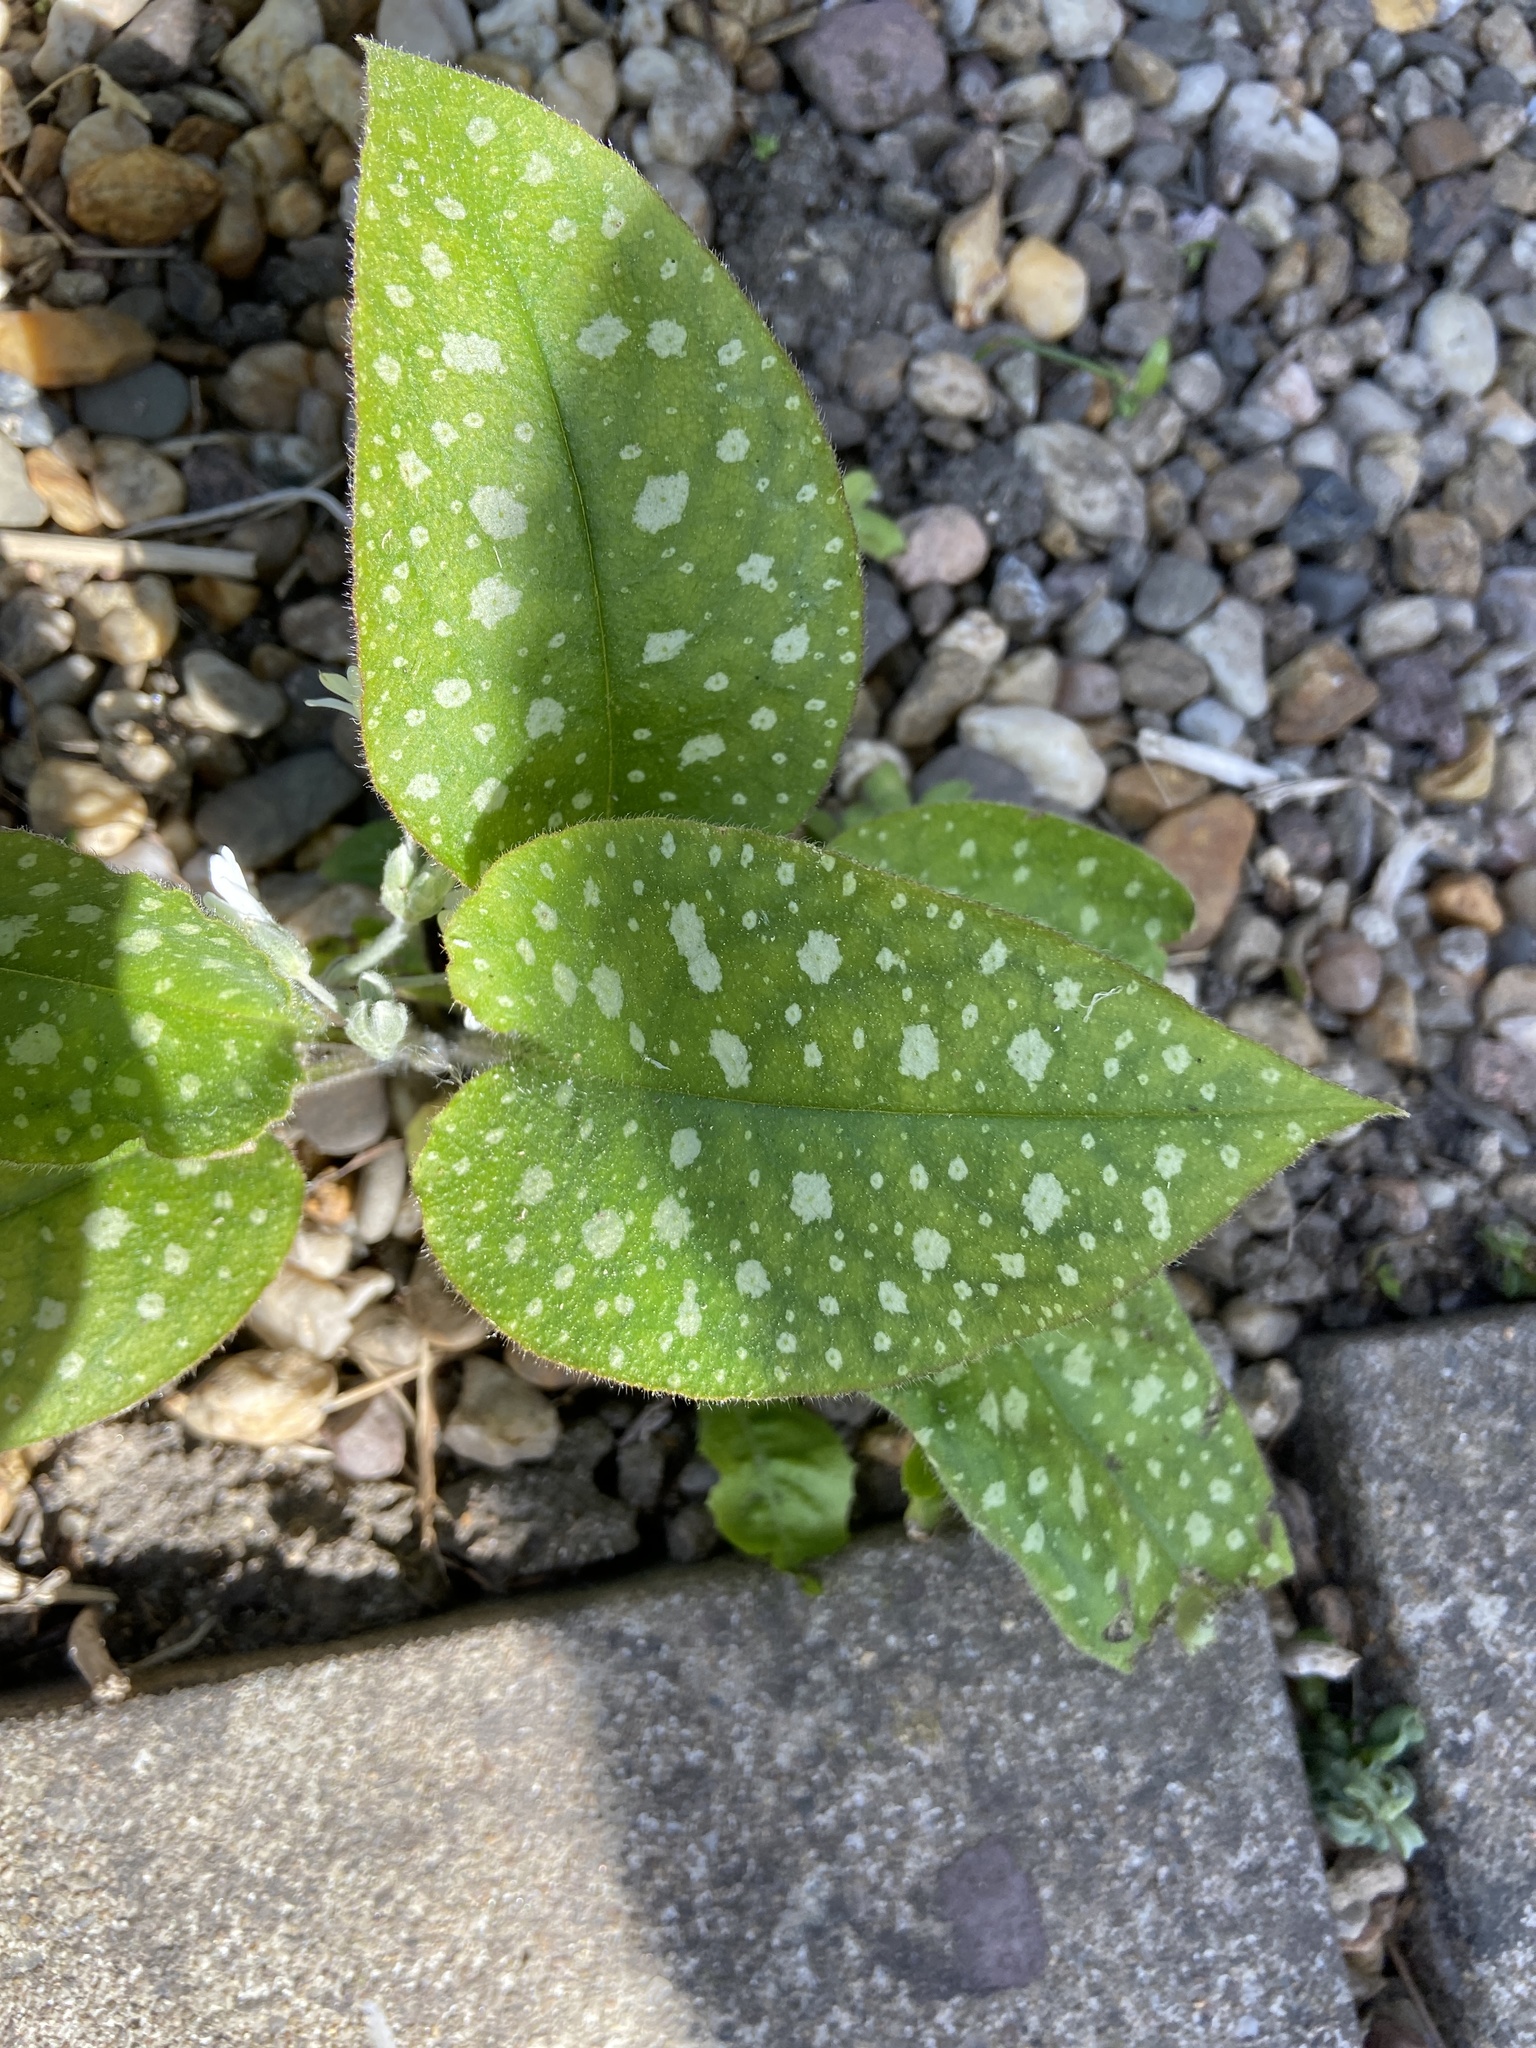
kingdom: Plantae
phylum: Tracheophyta
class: Magnoliopsida
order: Boraginales
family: Boraginaceae
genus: Pulmonaria
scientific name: Pulmonaria saccharata
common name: Bethlehem lungwort
